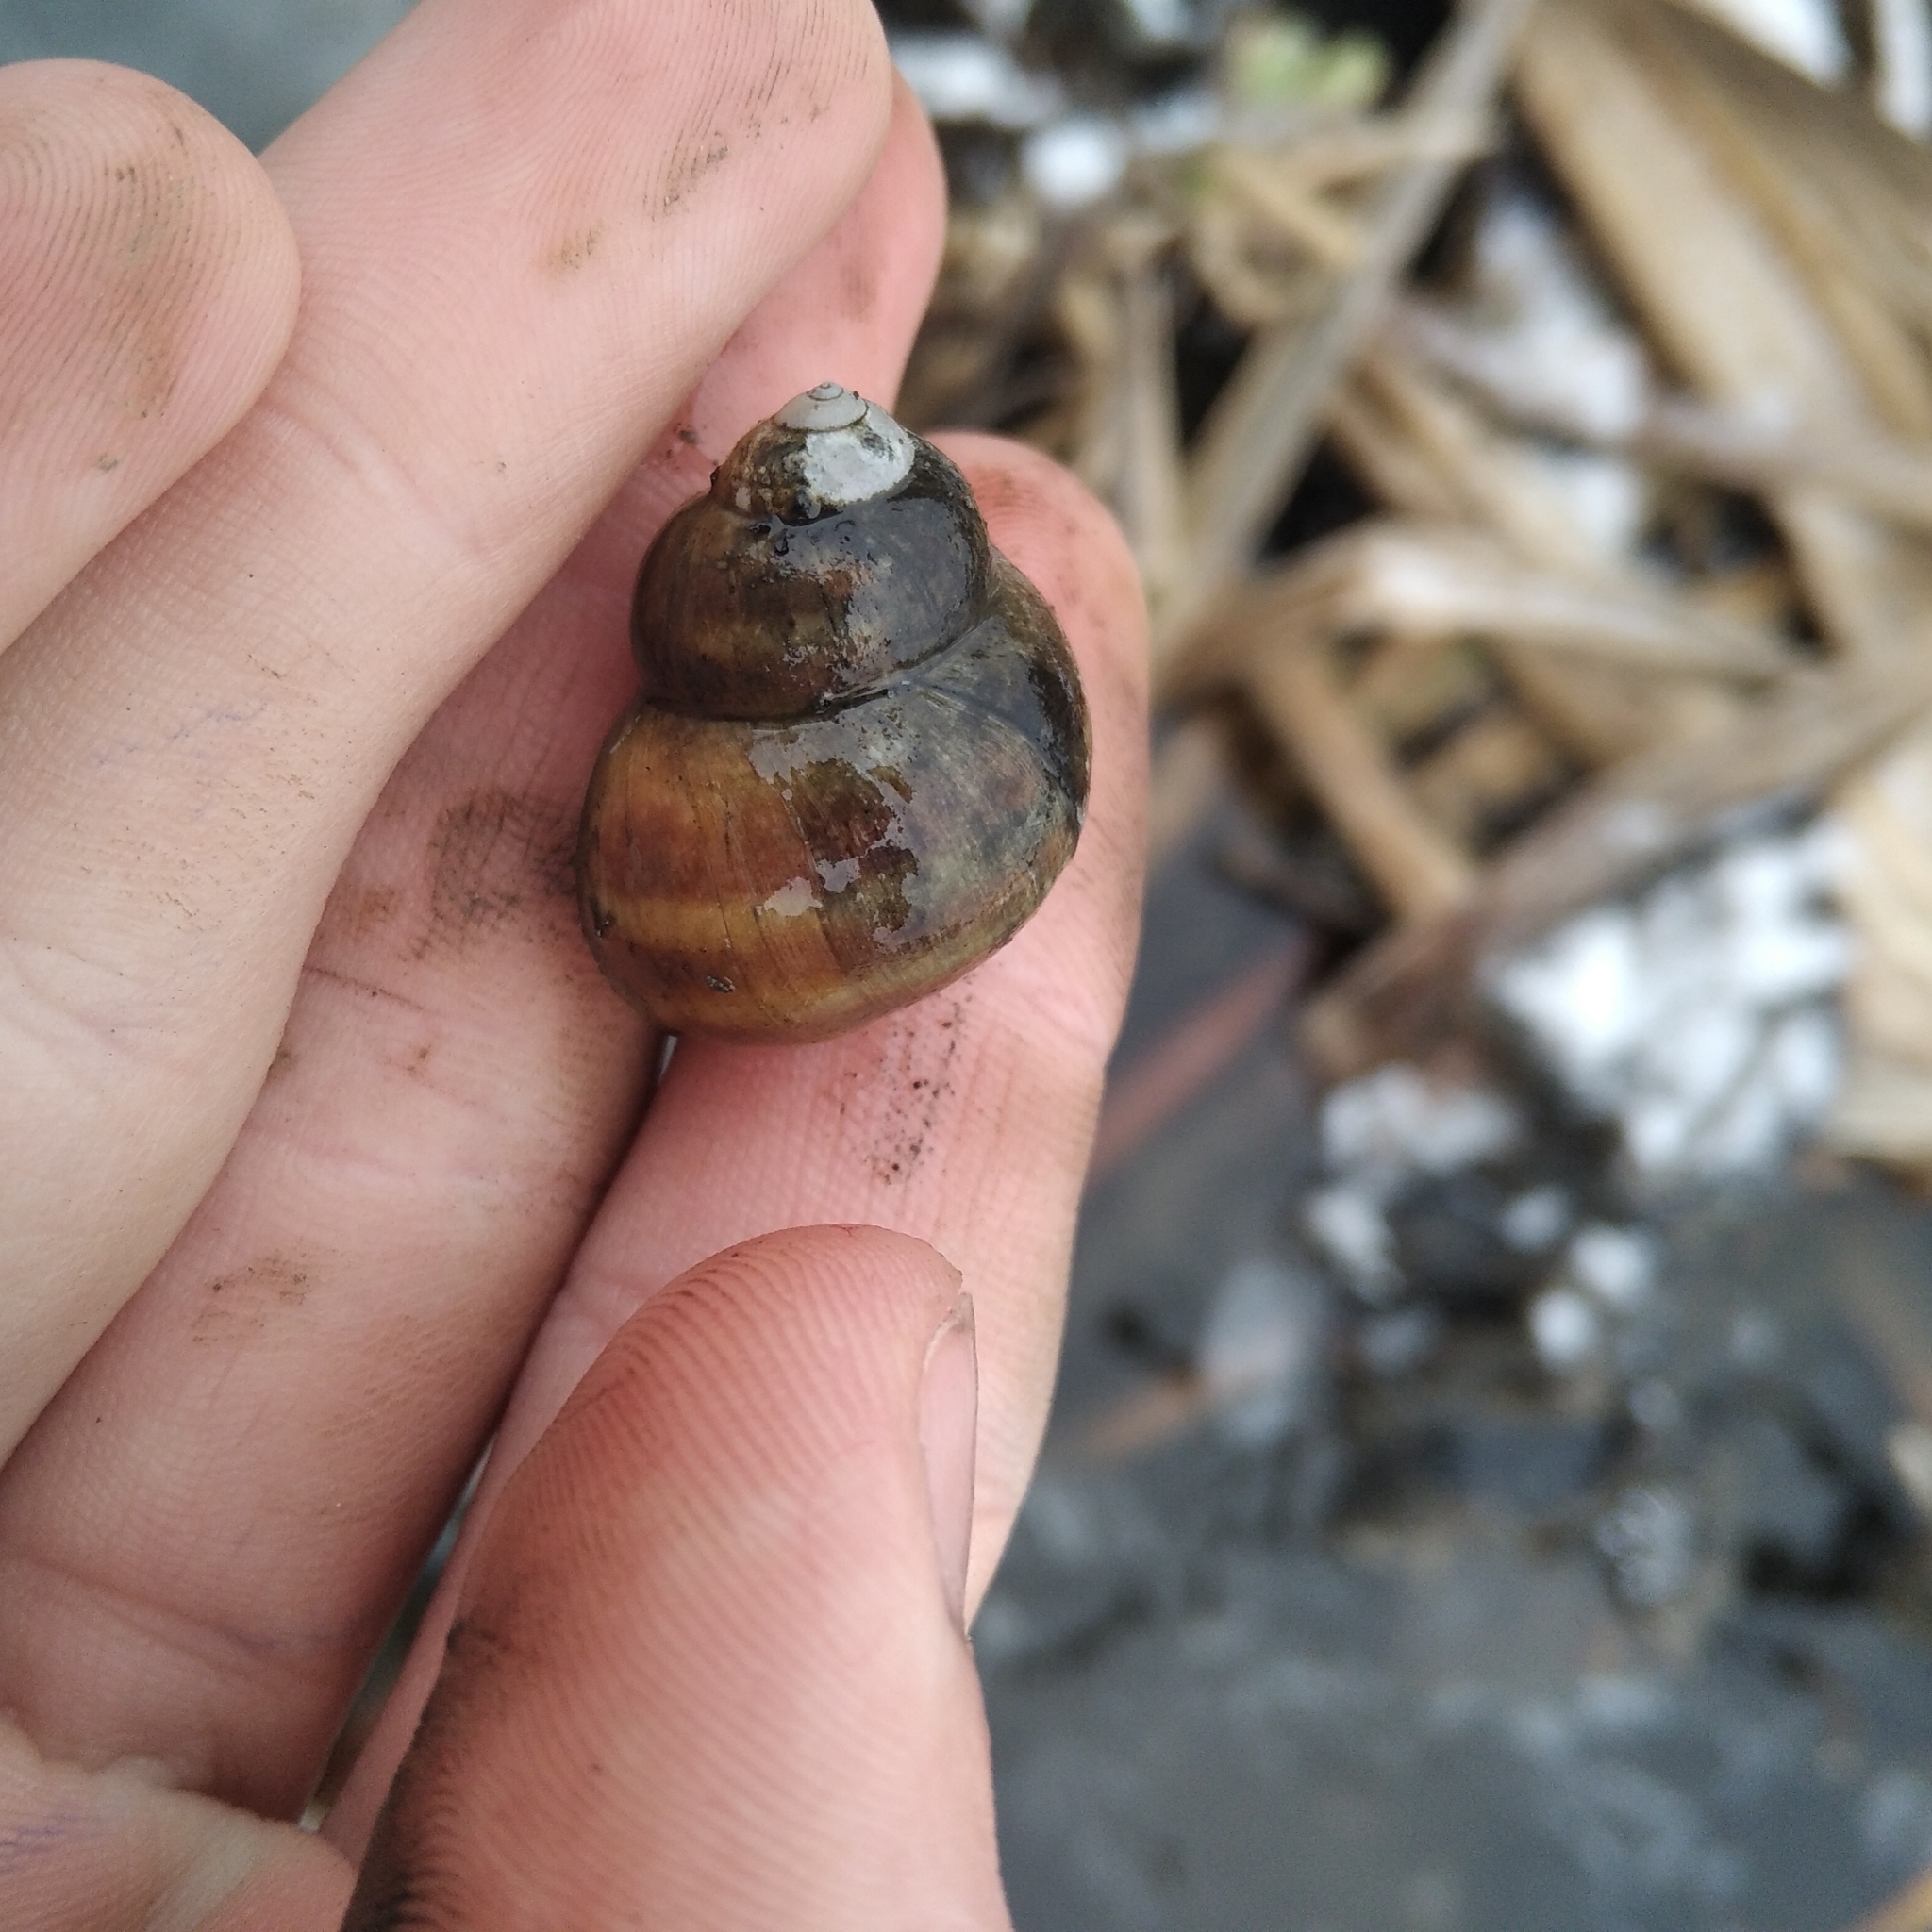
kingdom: Animalia
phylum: Mollusca
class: Gastropoda
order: Architaenioglossa
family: Viviparidae
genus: Viviparus
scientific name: Viviparus viviparus
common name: River snail
